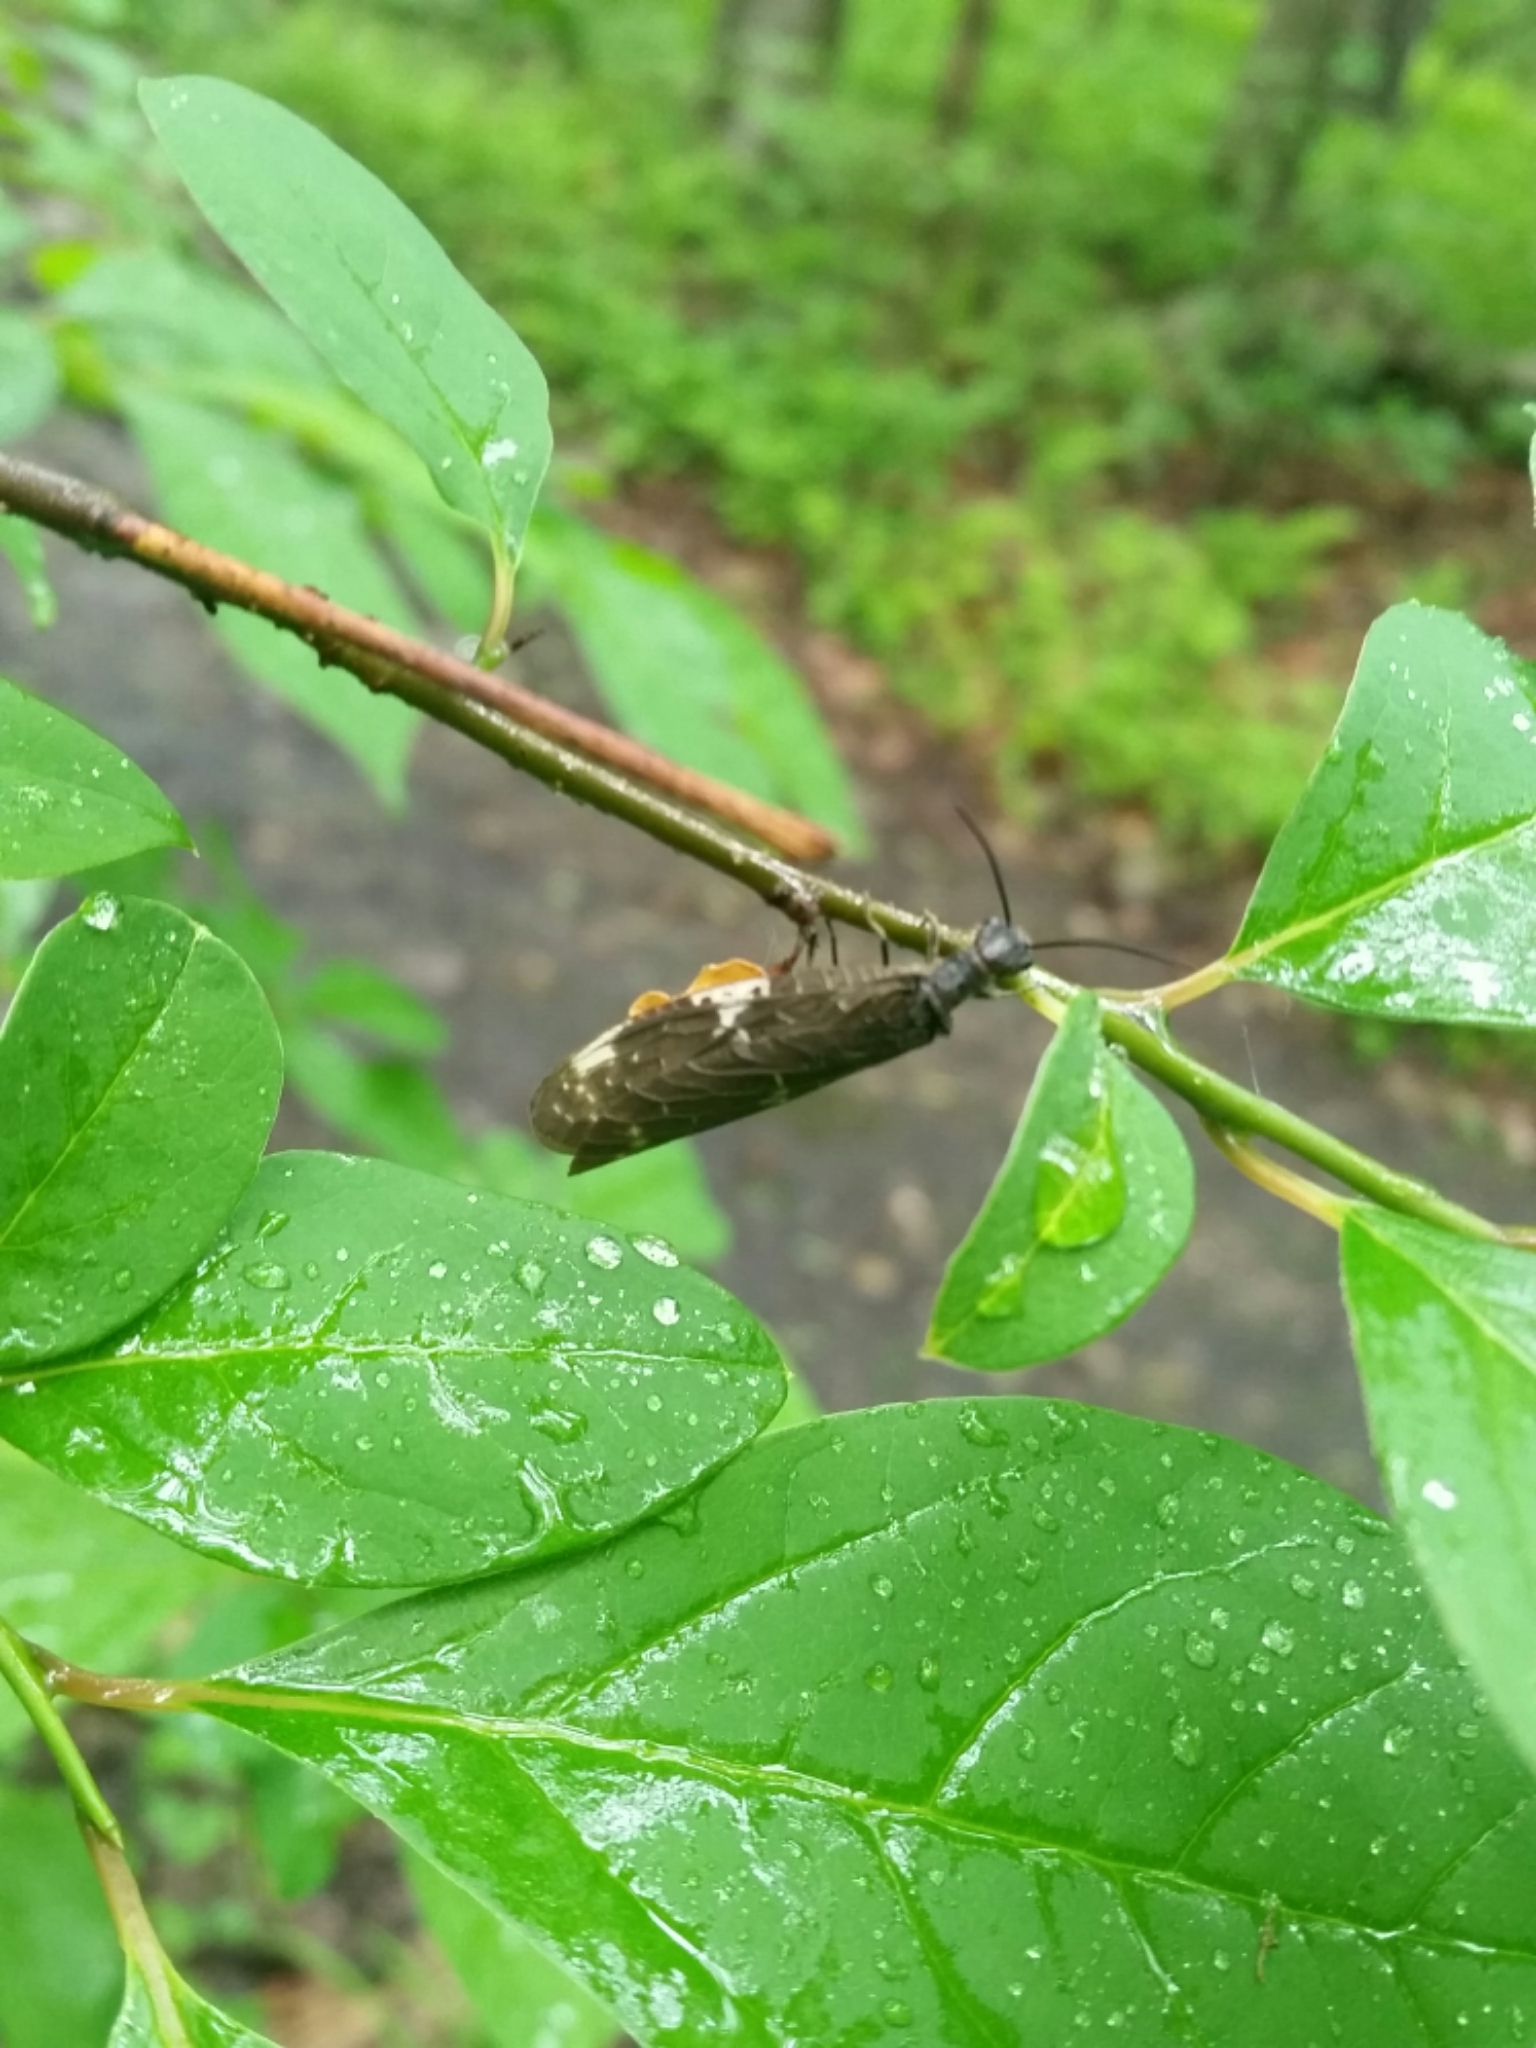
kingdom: Animalia
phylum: Arthropoda
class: Insecta
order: Megaloptera
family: Corydalidae
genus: Nigronia
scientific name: Nigronia serricornis
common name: Serrate dark fishfly
